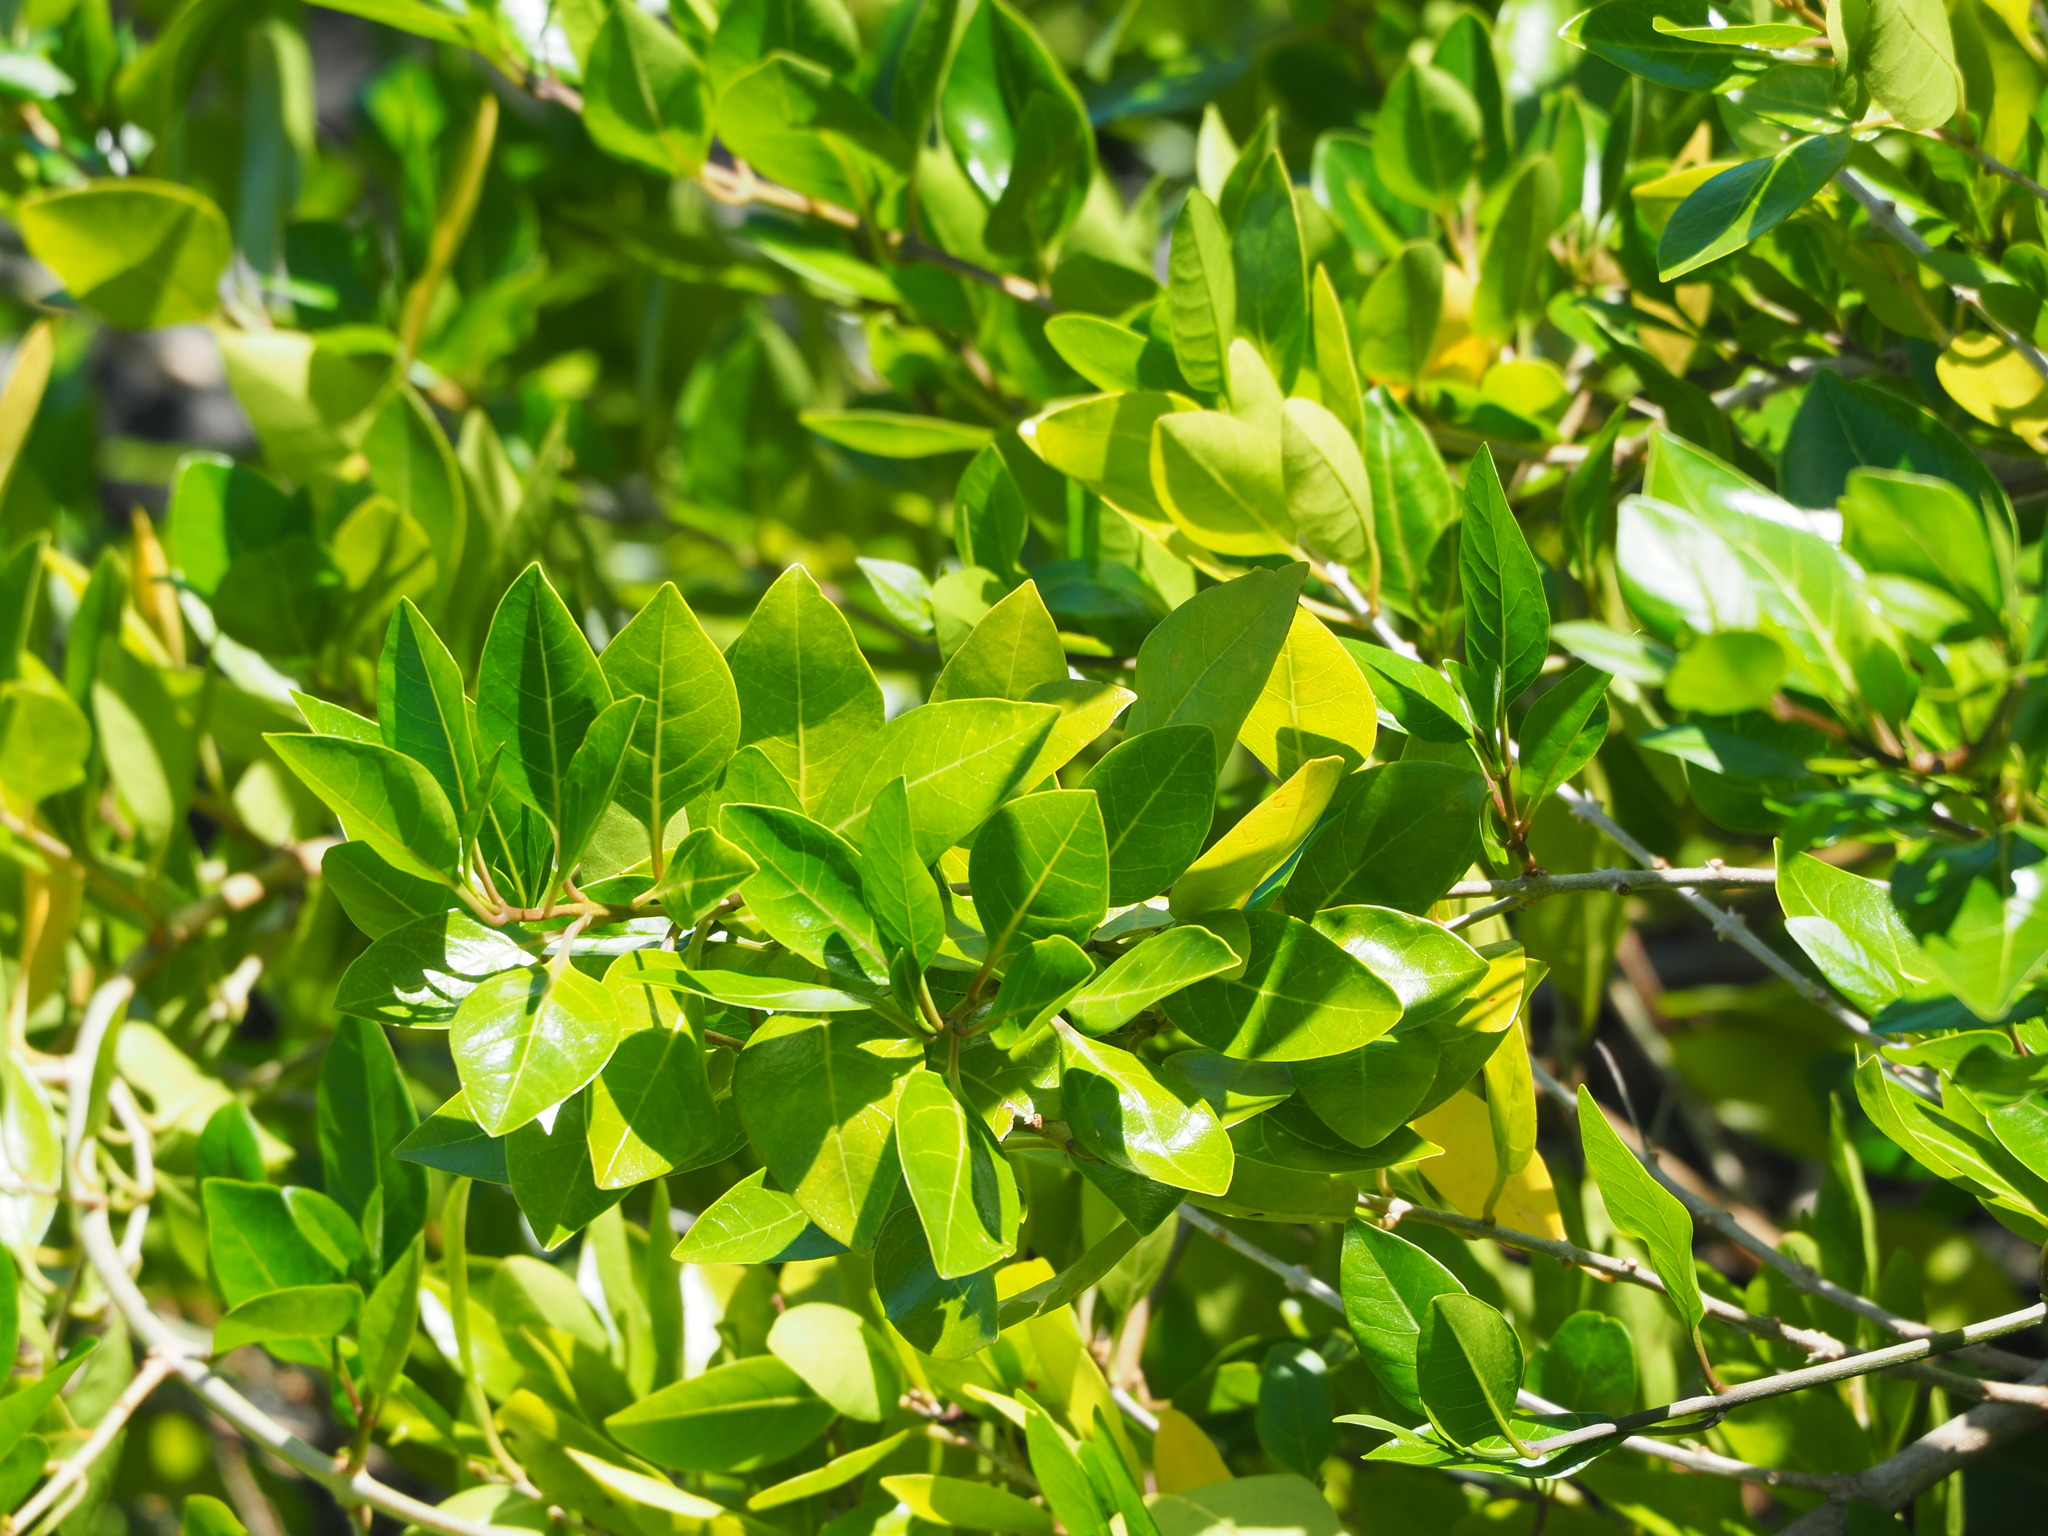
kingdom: Plantae
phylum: Tracheophyta
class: Magnoliopsida
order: Lamiales
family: Lamiaceae
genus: Volkameria
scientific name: Volkameria inermis
